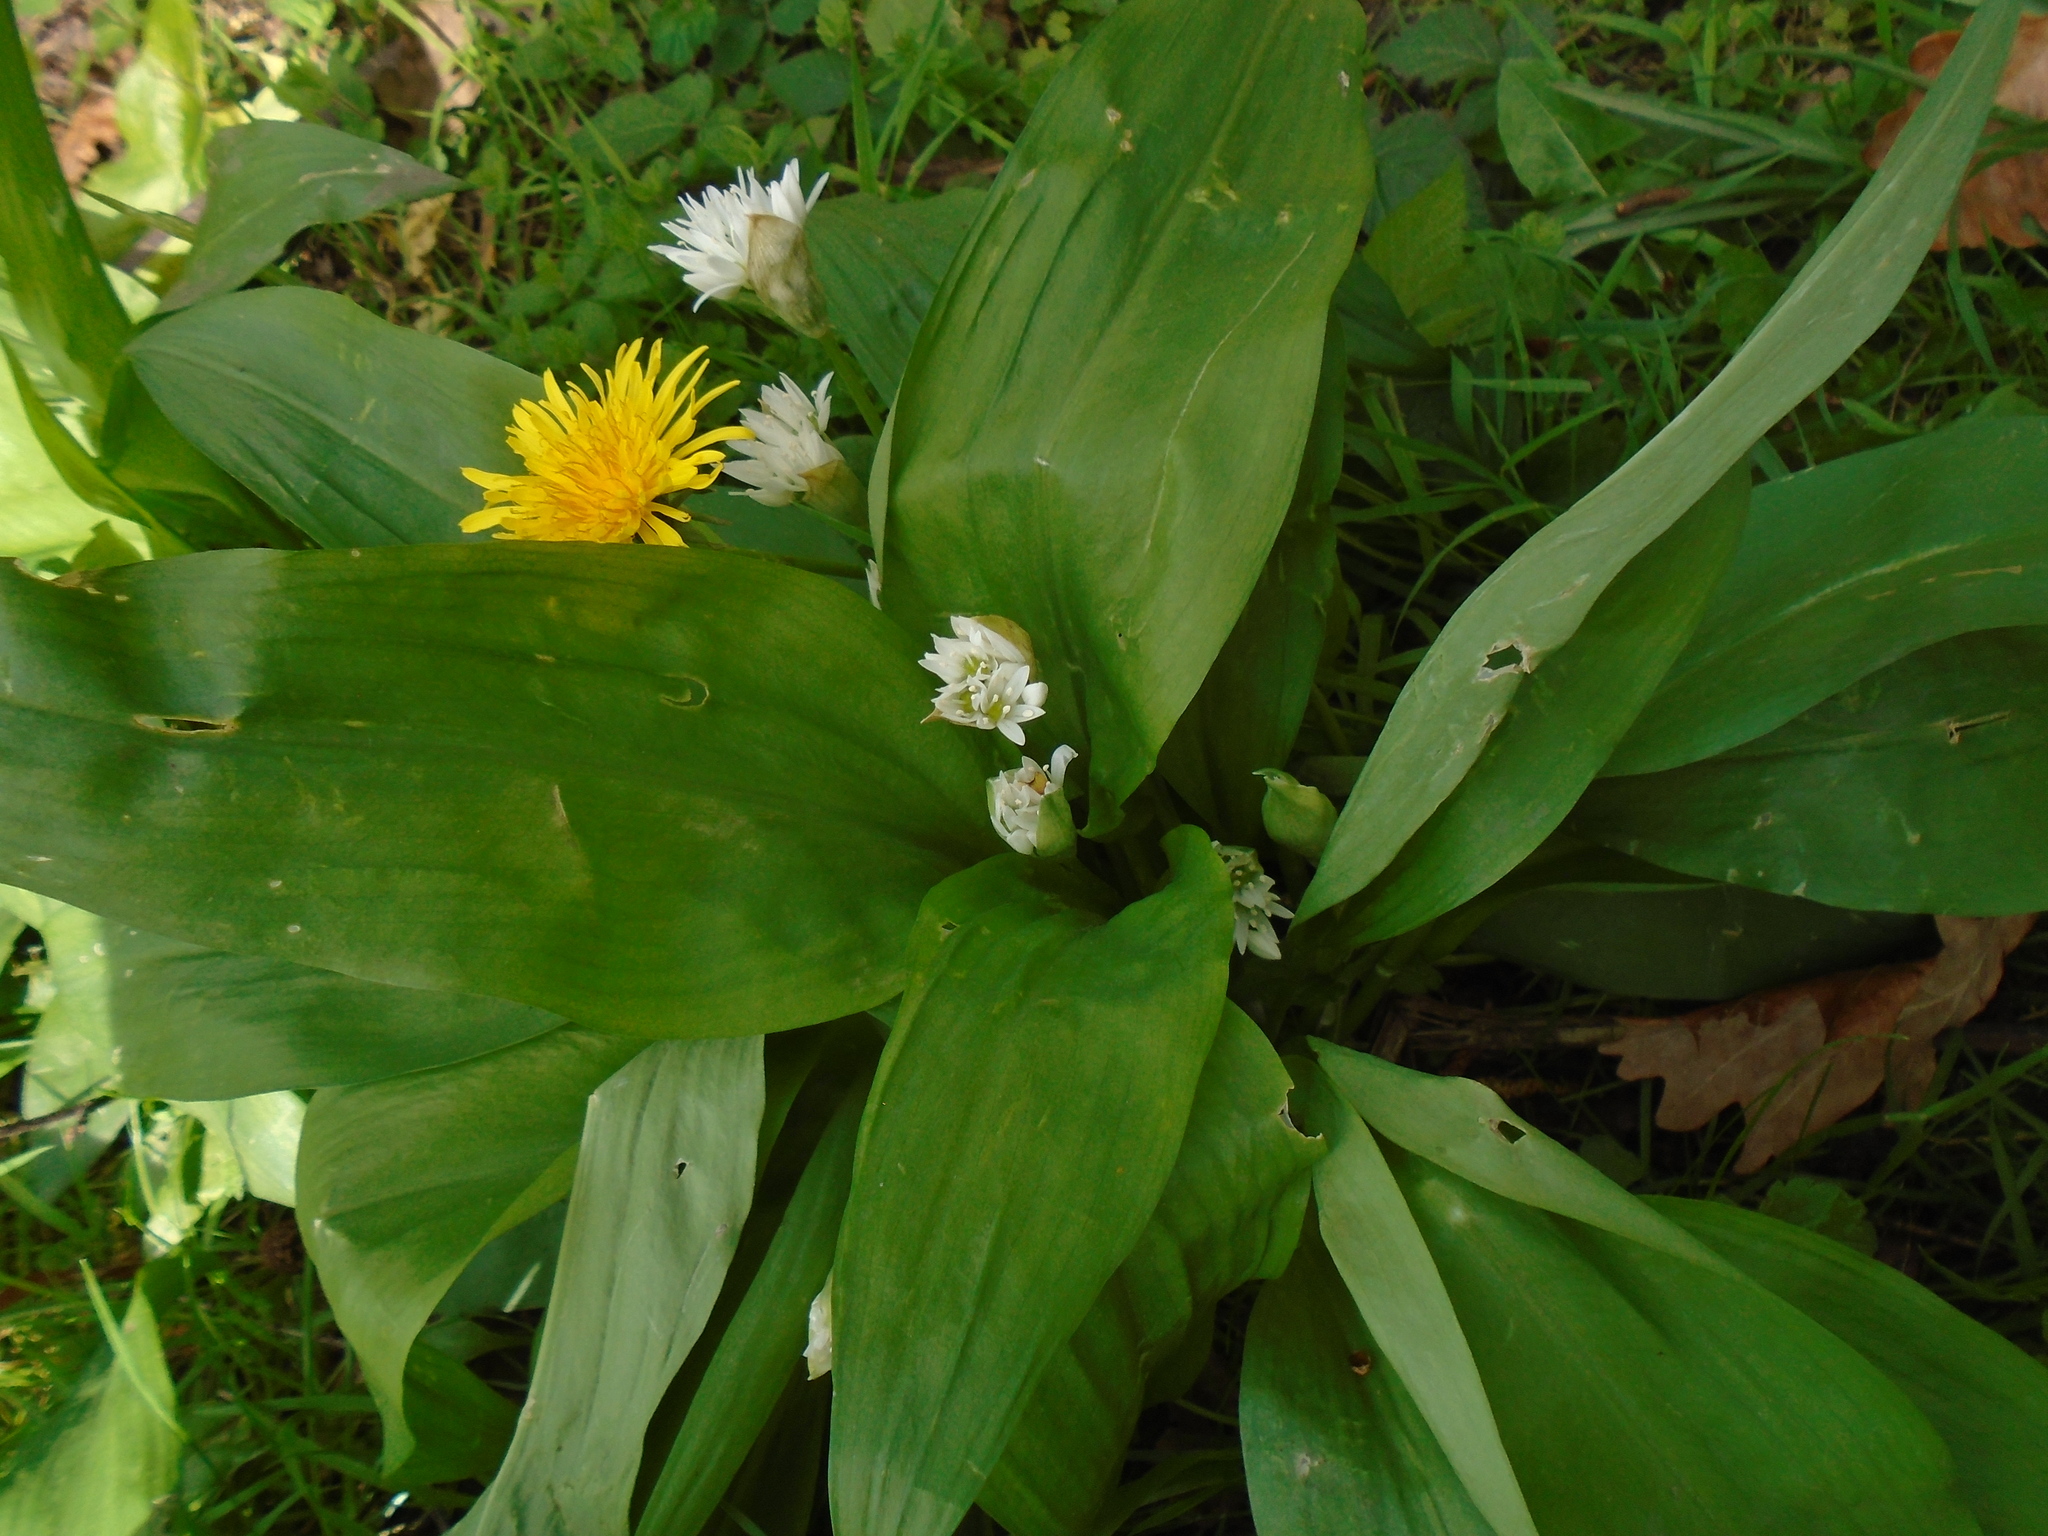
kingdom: Plantae
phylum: Tracheophyta
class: Liliopsida
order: Asparagales
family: Amaryllidaceae
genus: Allium
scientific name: Allium ursinum
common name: Ramsons
